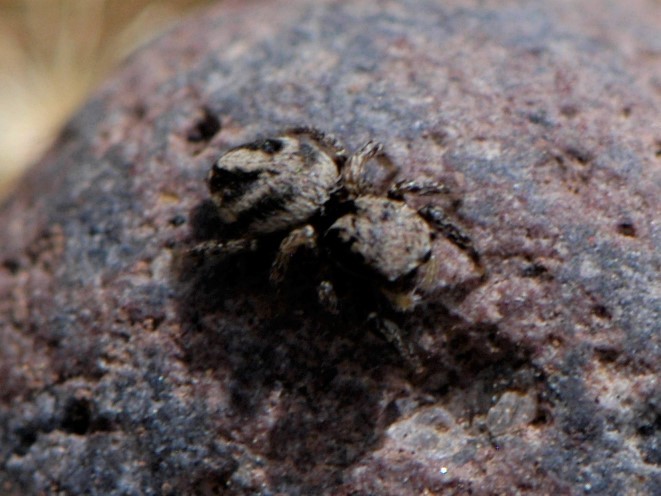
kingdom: Animalia
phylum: Arthropoda
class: Arachnida
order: Araneae
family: Salticidae
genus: Habronattus
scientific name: Habronattus
